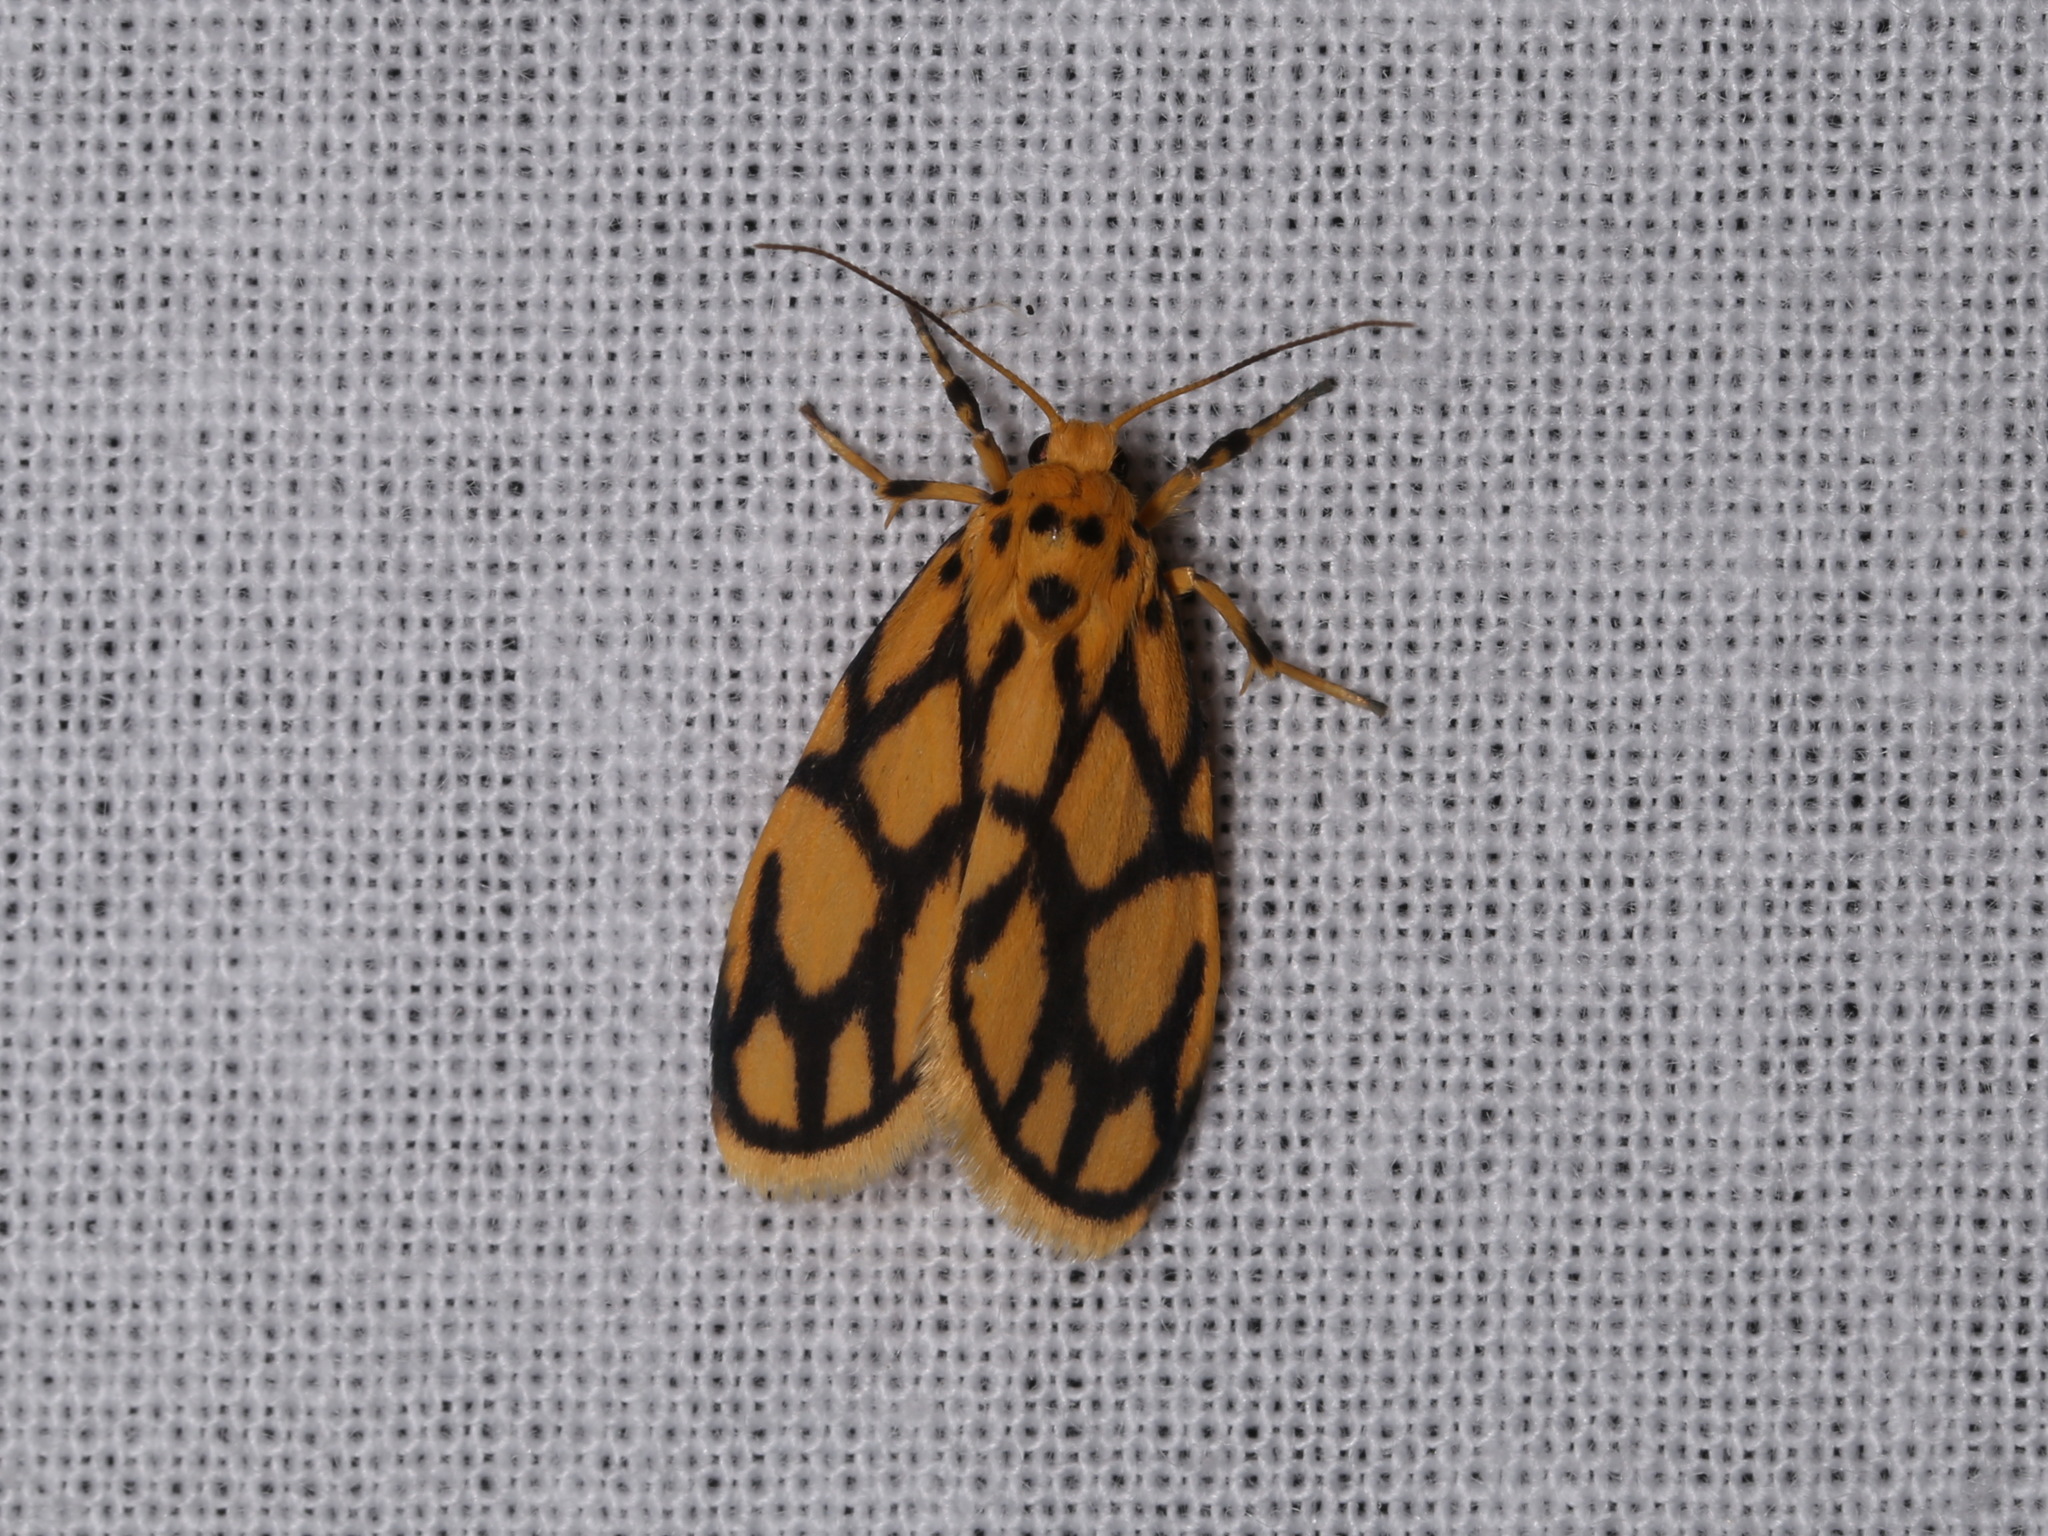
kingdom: Animalia
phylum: Arthropoda
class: Insecta
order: Lepidoptera
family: Erebidae
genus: Miltochrista
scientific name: Miltochrista conjunctana
